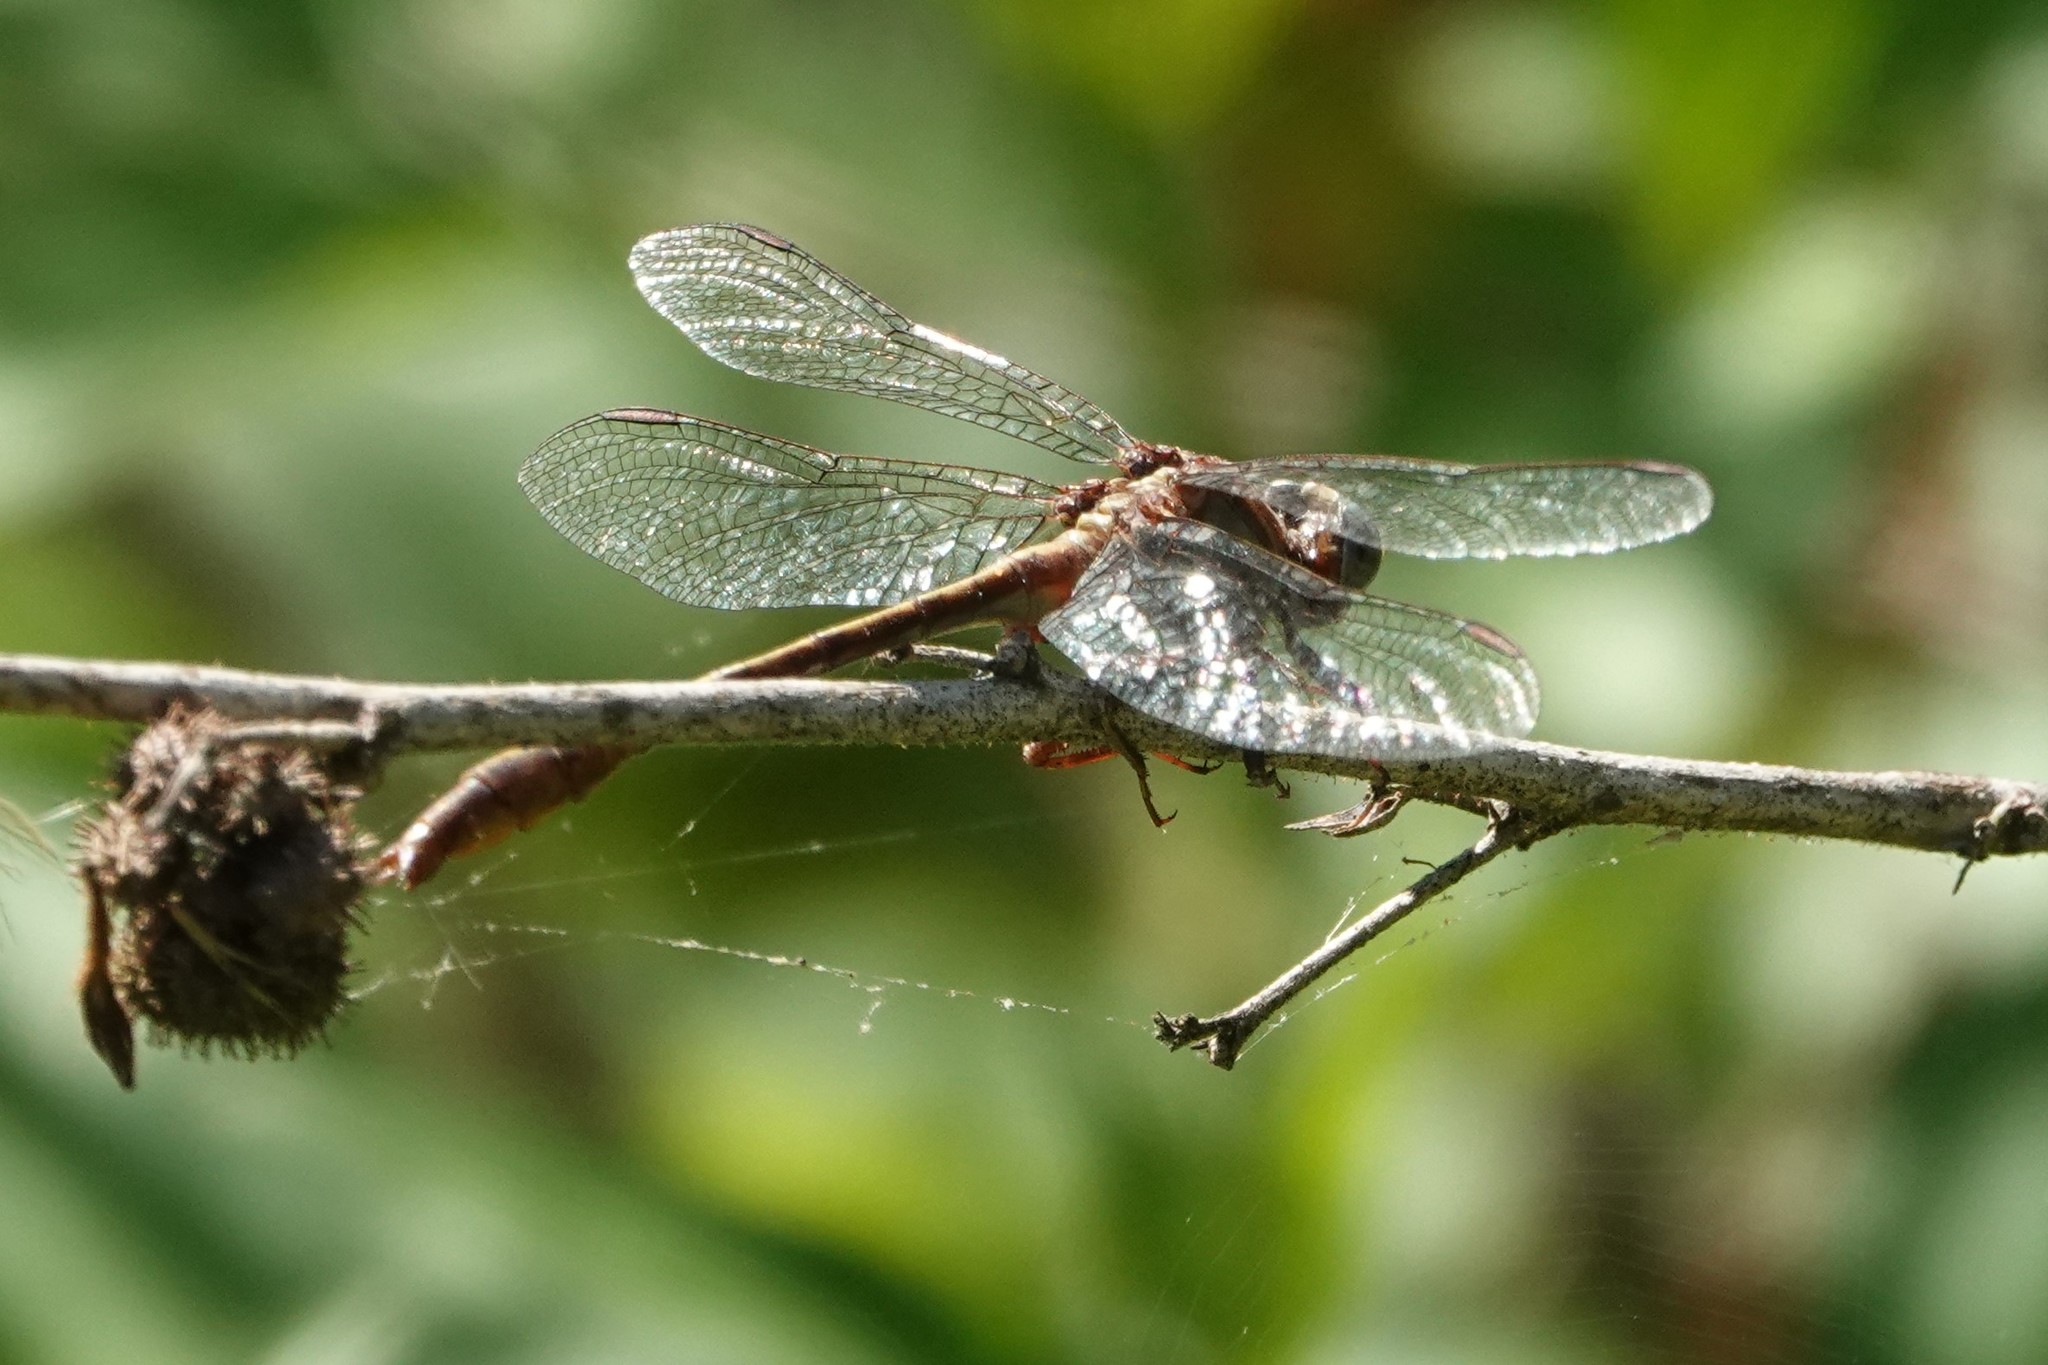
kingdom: Animalia
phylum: Arthropoda
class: Insecta
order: Odonata
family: Gomphidae
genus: Phanogomphus
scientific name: Phanogomphus minutus
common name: Cypress clubtail
